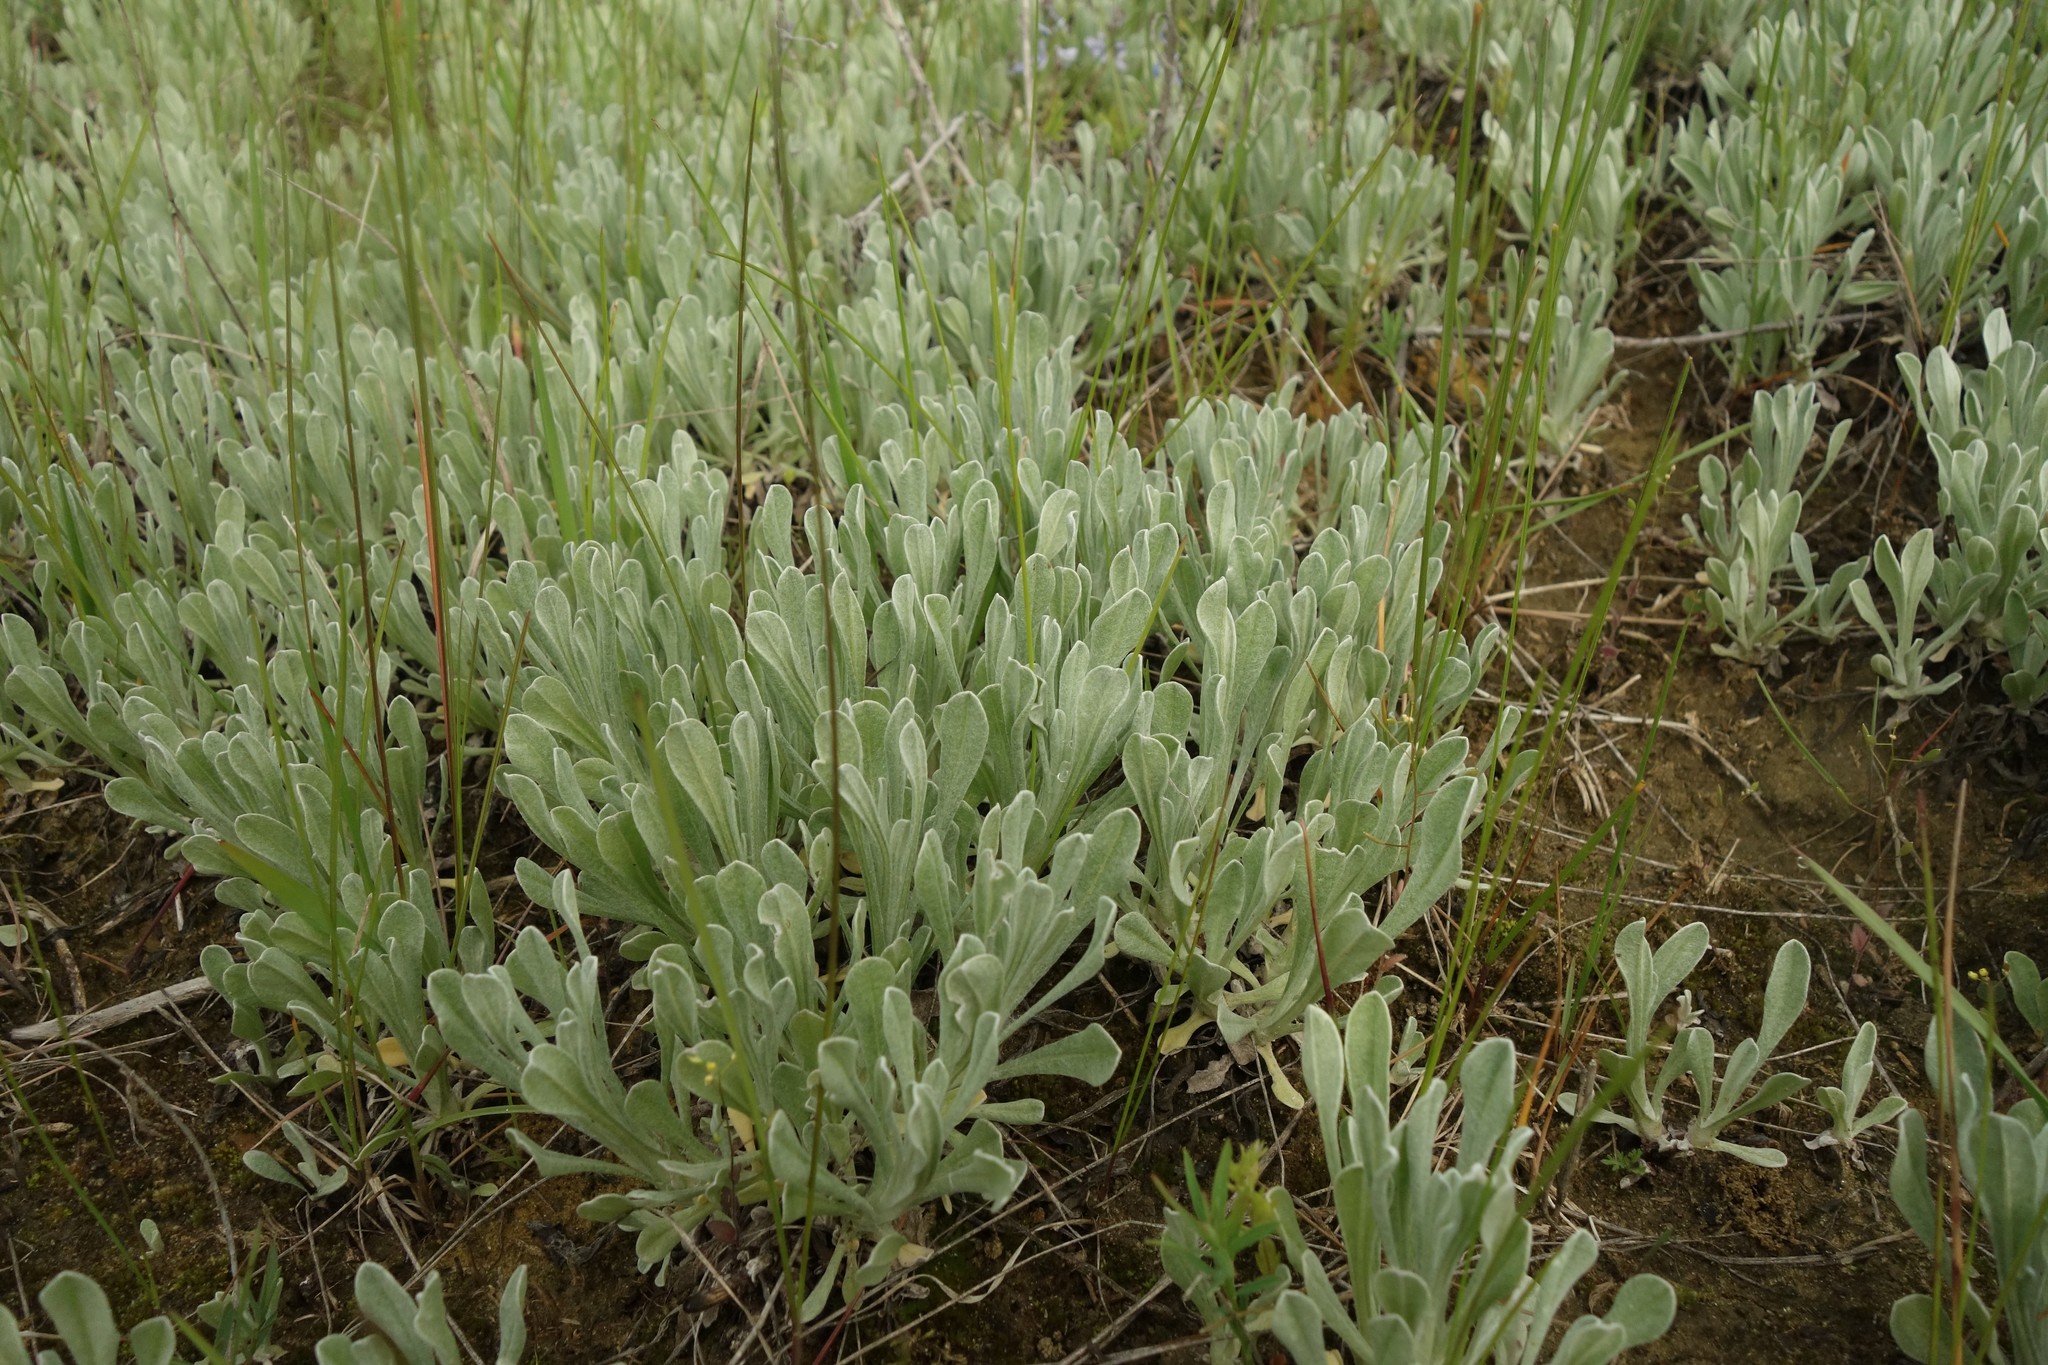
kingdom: Plantae
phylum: Tracheophyta
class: Magnoliopsida
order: Asterales
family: Asteraceae
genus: Helichrysum
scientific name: Helichrysum arenarium
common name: Strawflower
